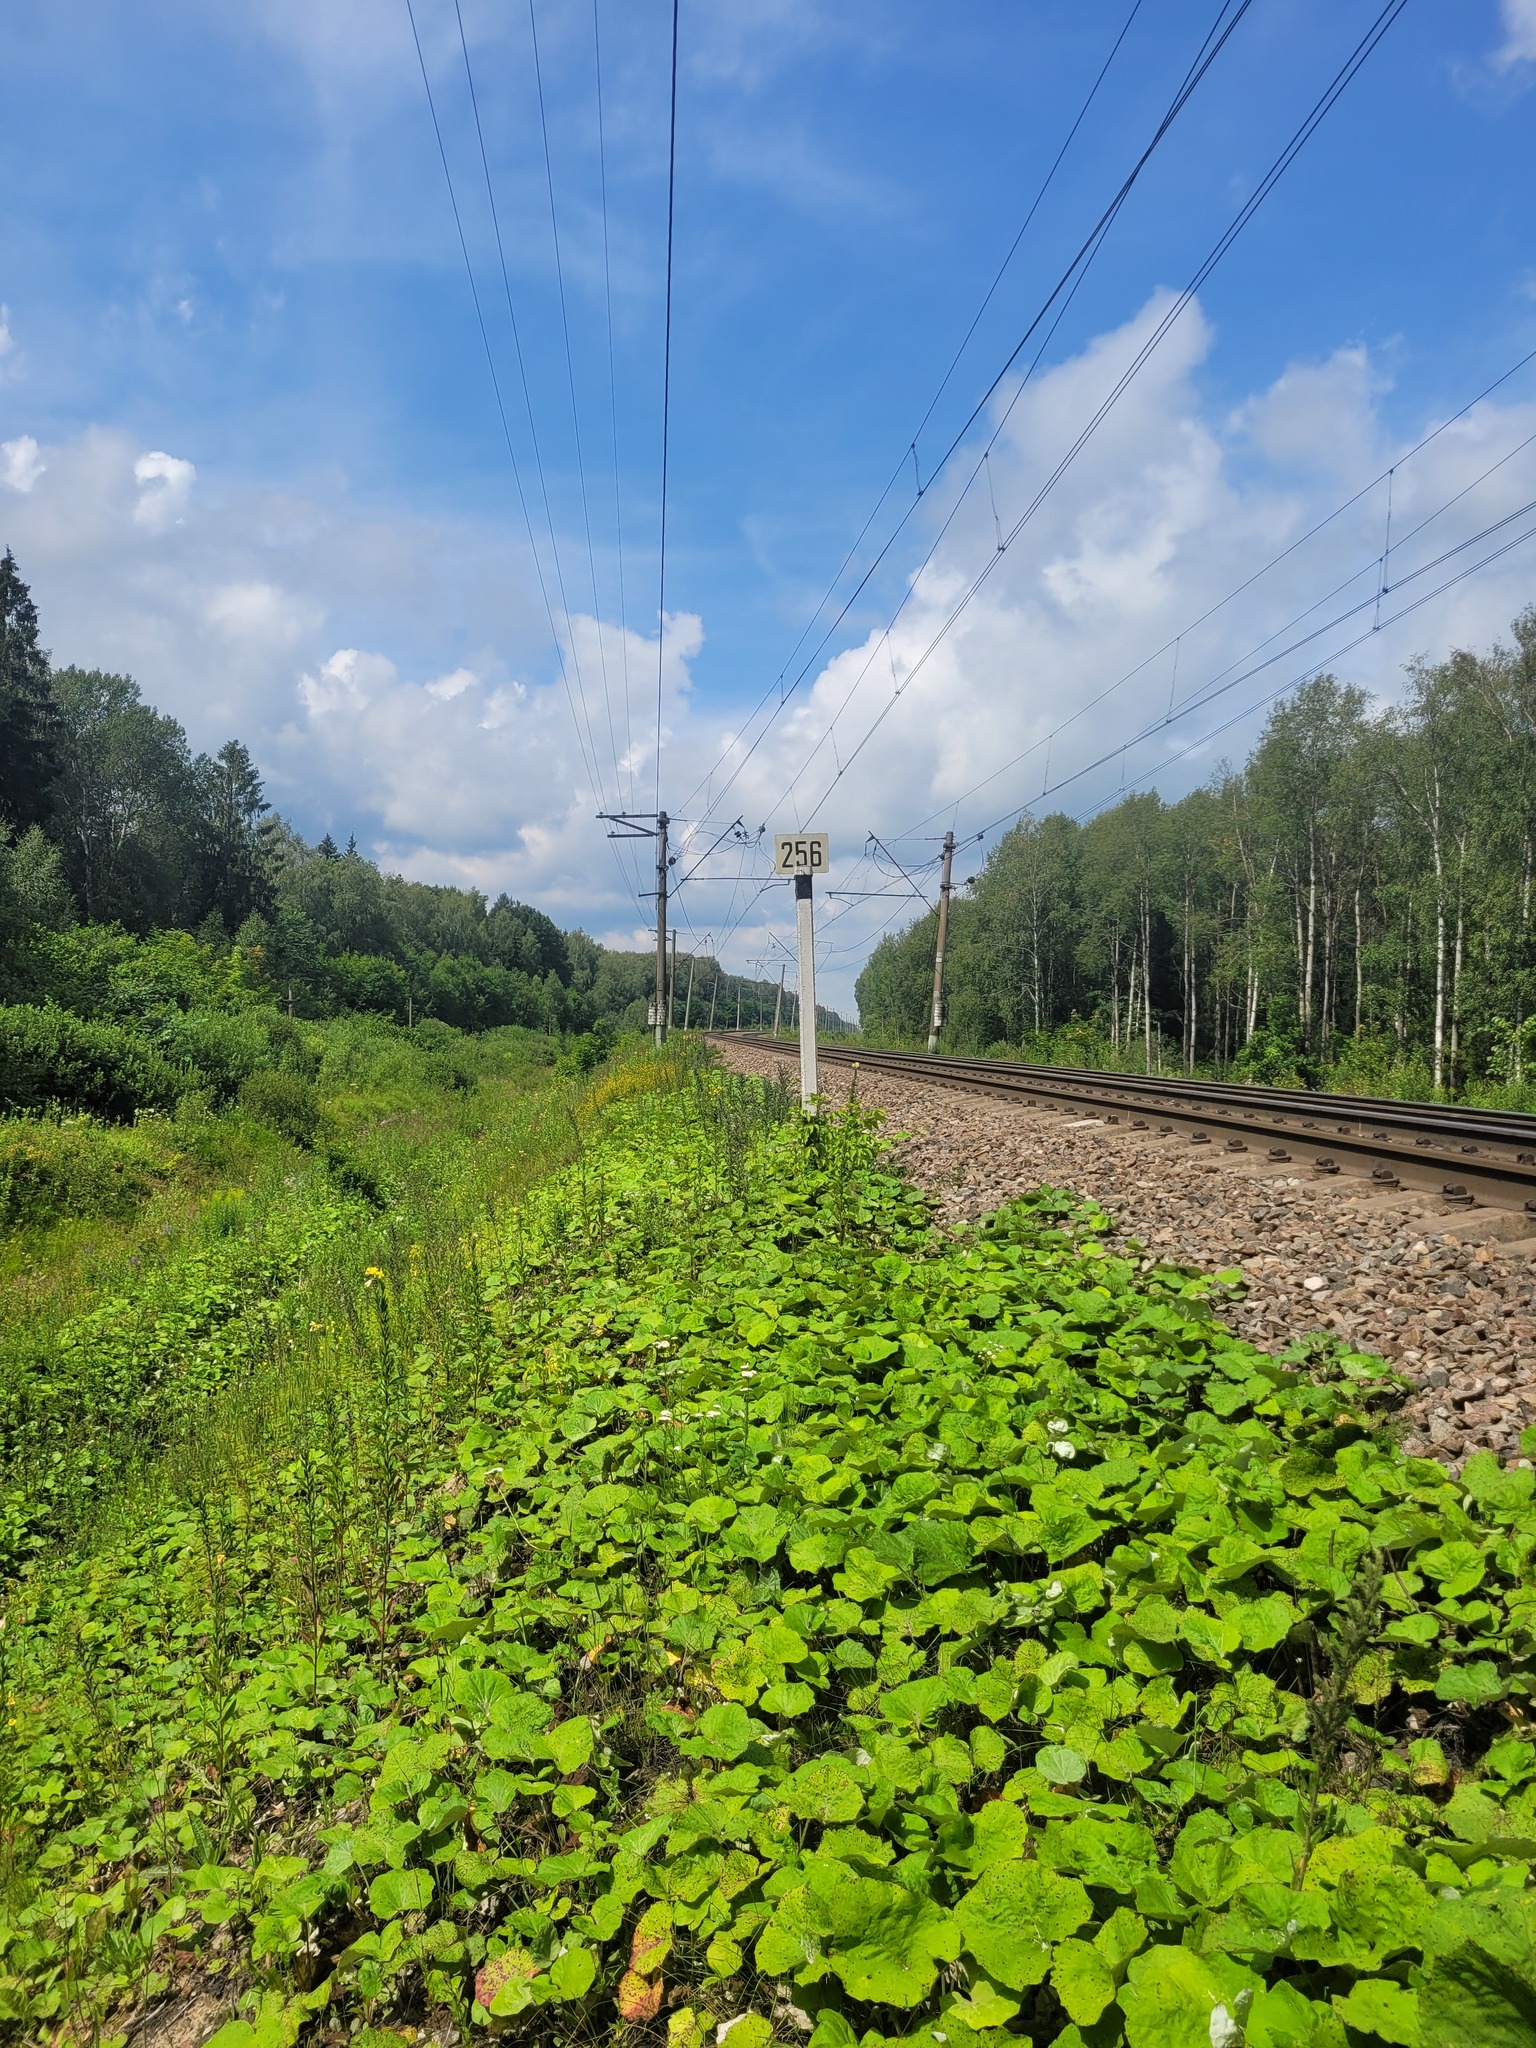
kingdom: Plantae
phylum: Tracheophyta
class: Magnoliopsida
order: Asterales
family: Asteraceae
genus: Tussilago
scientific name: Tussilago farfara
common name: Coltsfoot
